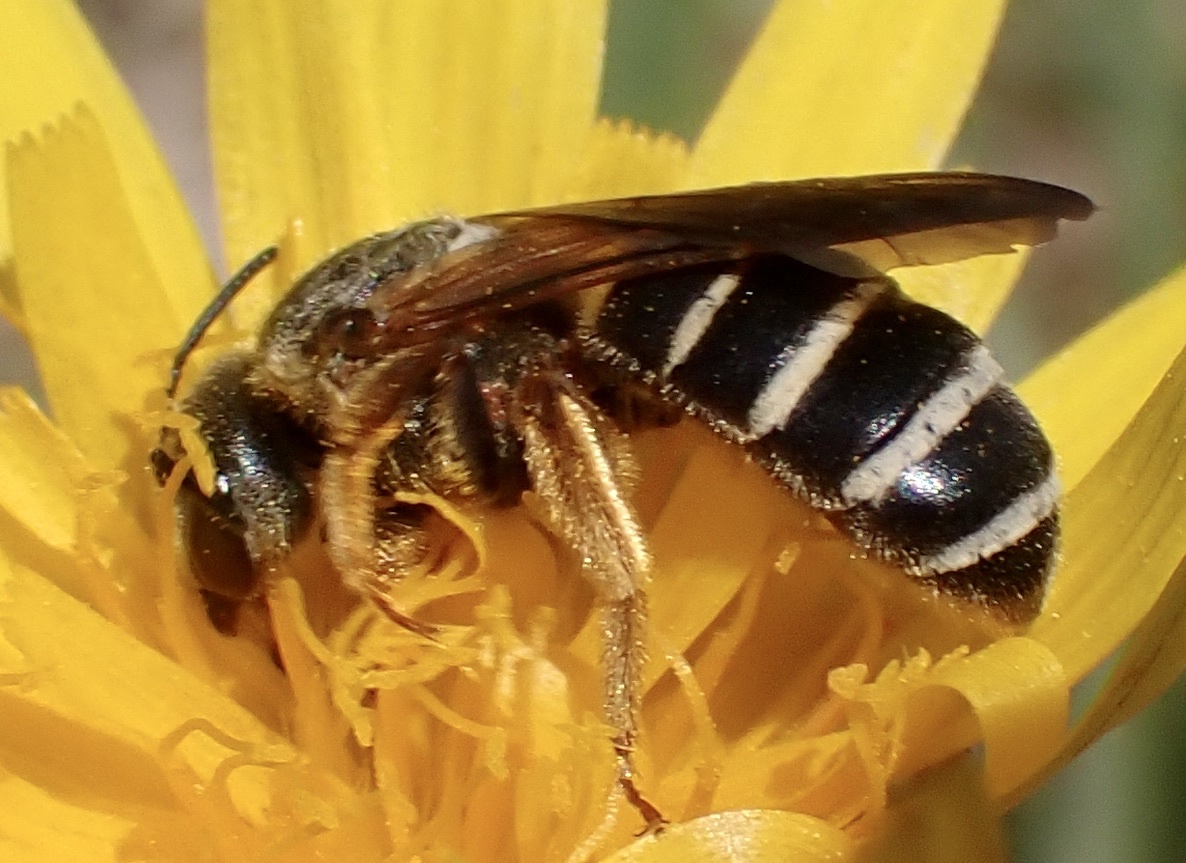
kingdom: Animalia
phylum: Arthropoda
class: Insecta
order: Hymenoptera
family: Halictidae
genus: Halictus
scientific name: Halictus parallelus
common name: Parallel-striped sweat bee
